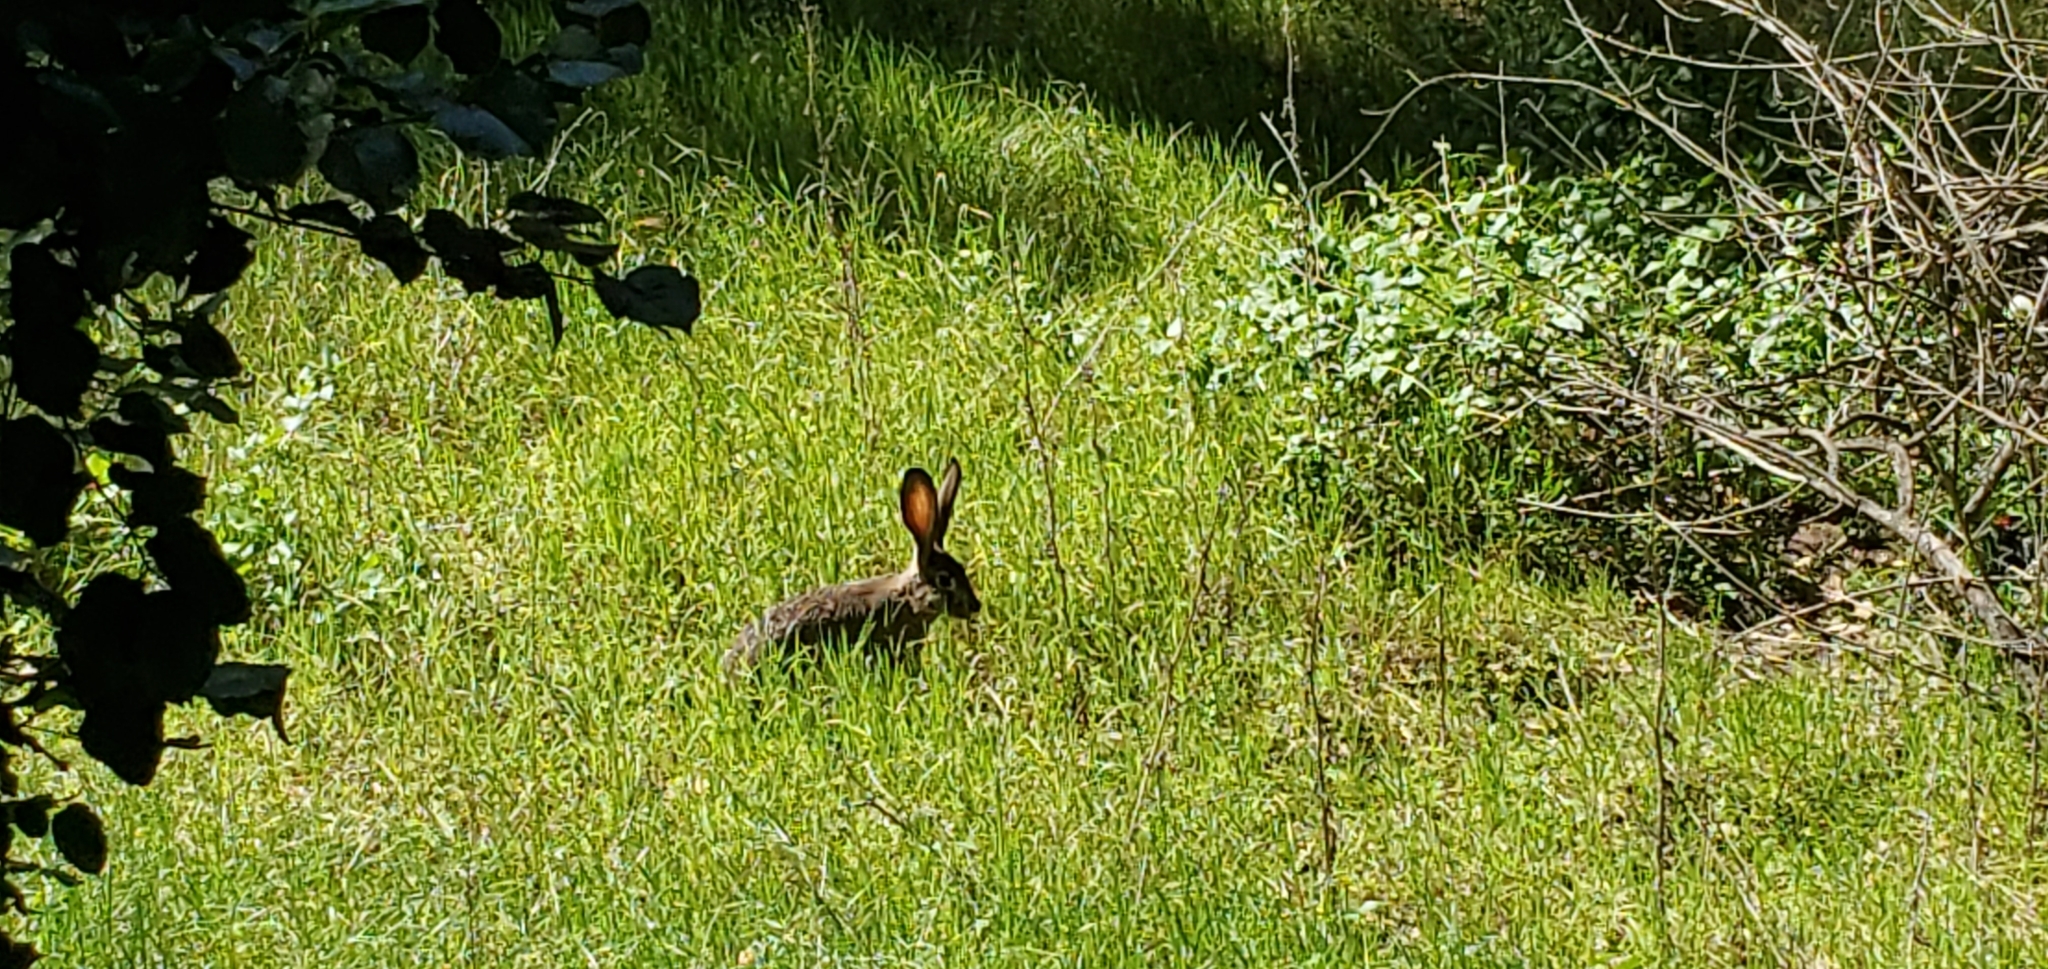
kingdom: Animalia
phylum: Chordata
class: Mammalia
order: Lagomorpha
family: Leporidae
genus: Lepus
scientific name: Lepus californicus
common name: Black-tailed jackrabbit
